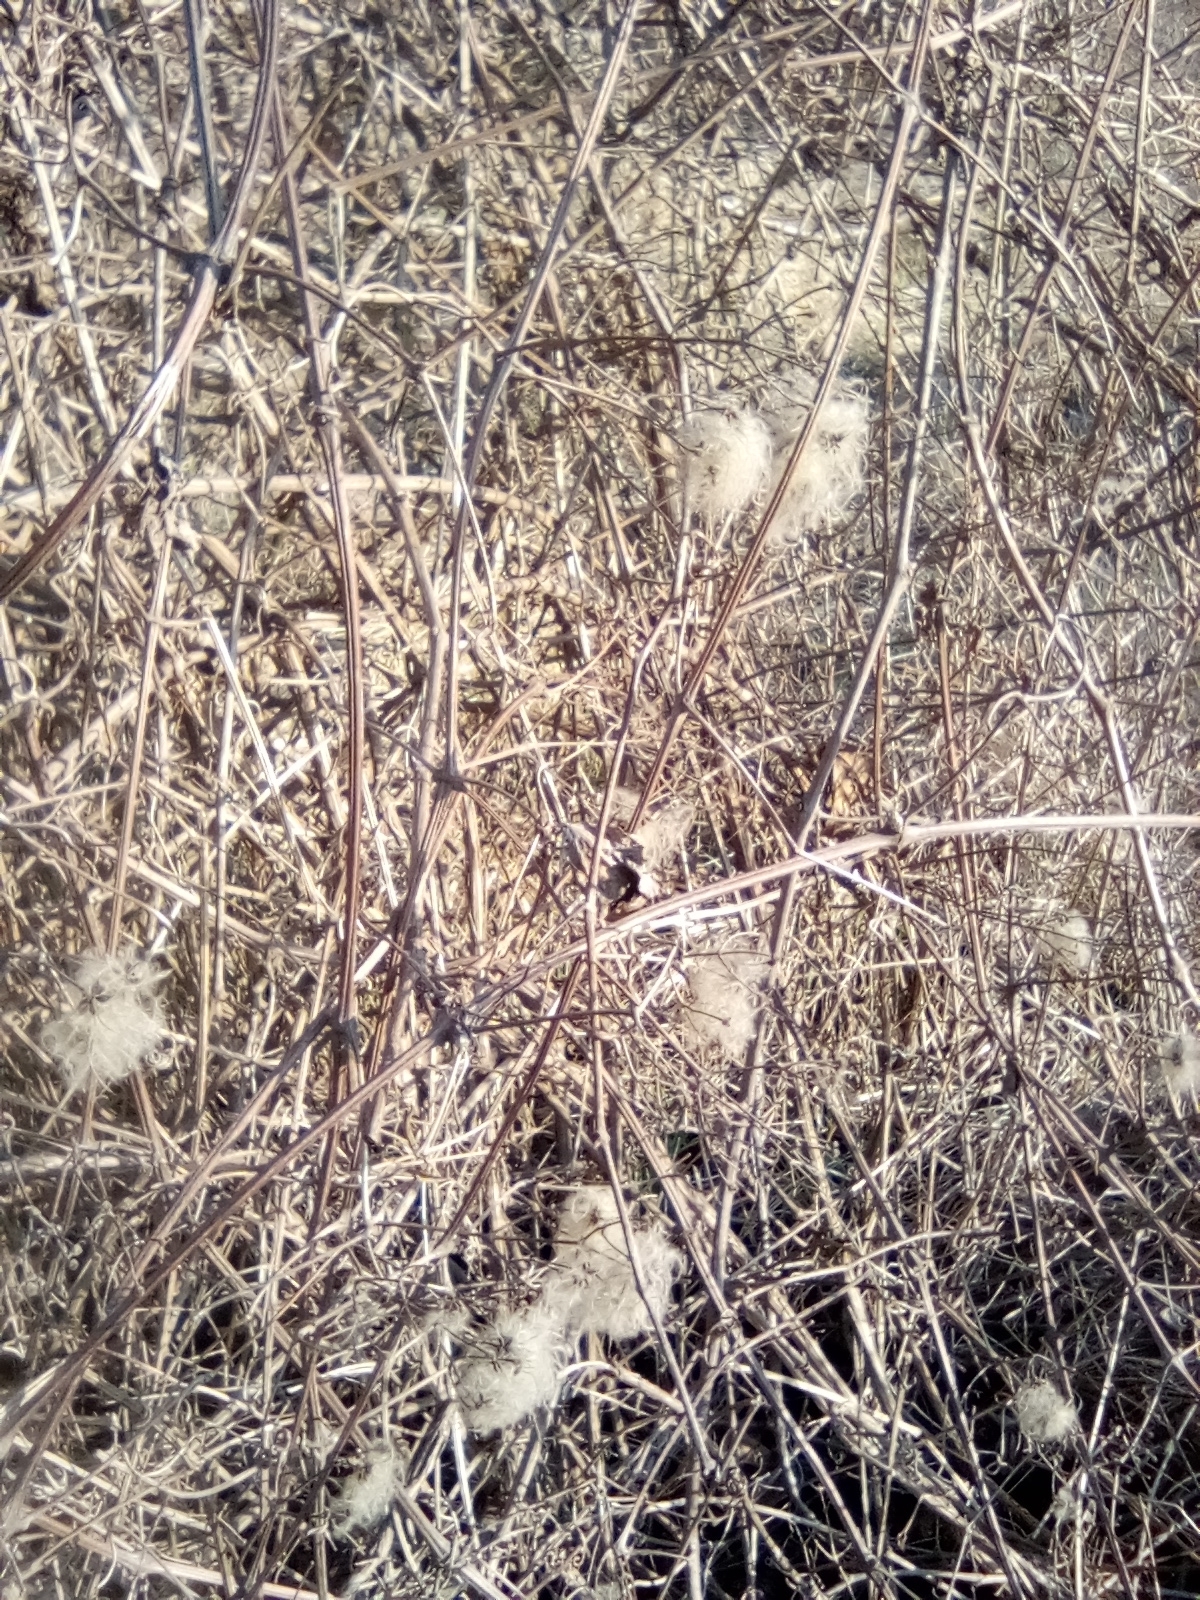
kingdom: Plantae
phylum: Tracheophyta
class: Magnoliopsida
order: Ranunculales
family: Ranunculaceae
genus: Clematis
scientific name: Clematis vitalba
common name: Evergreen clematis
